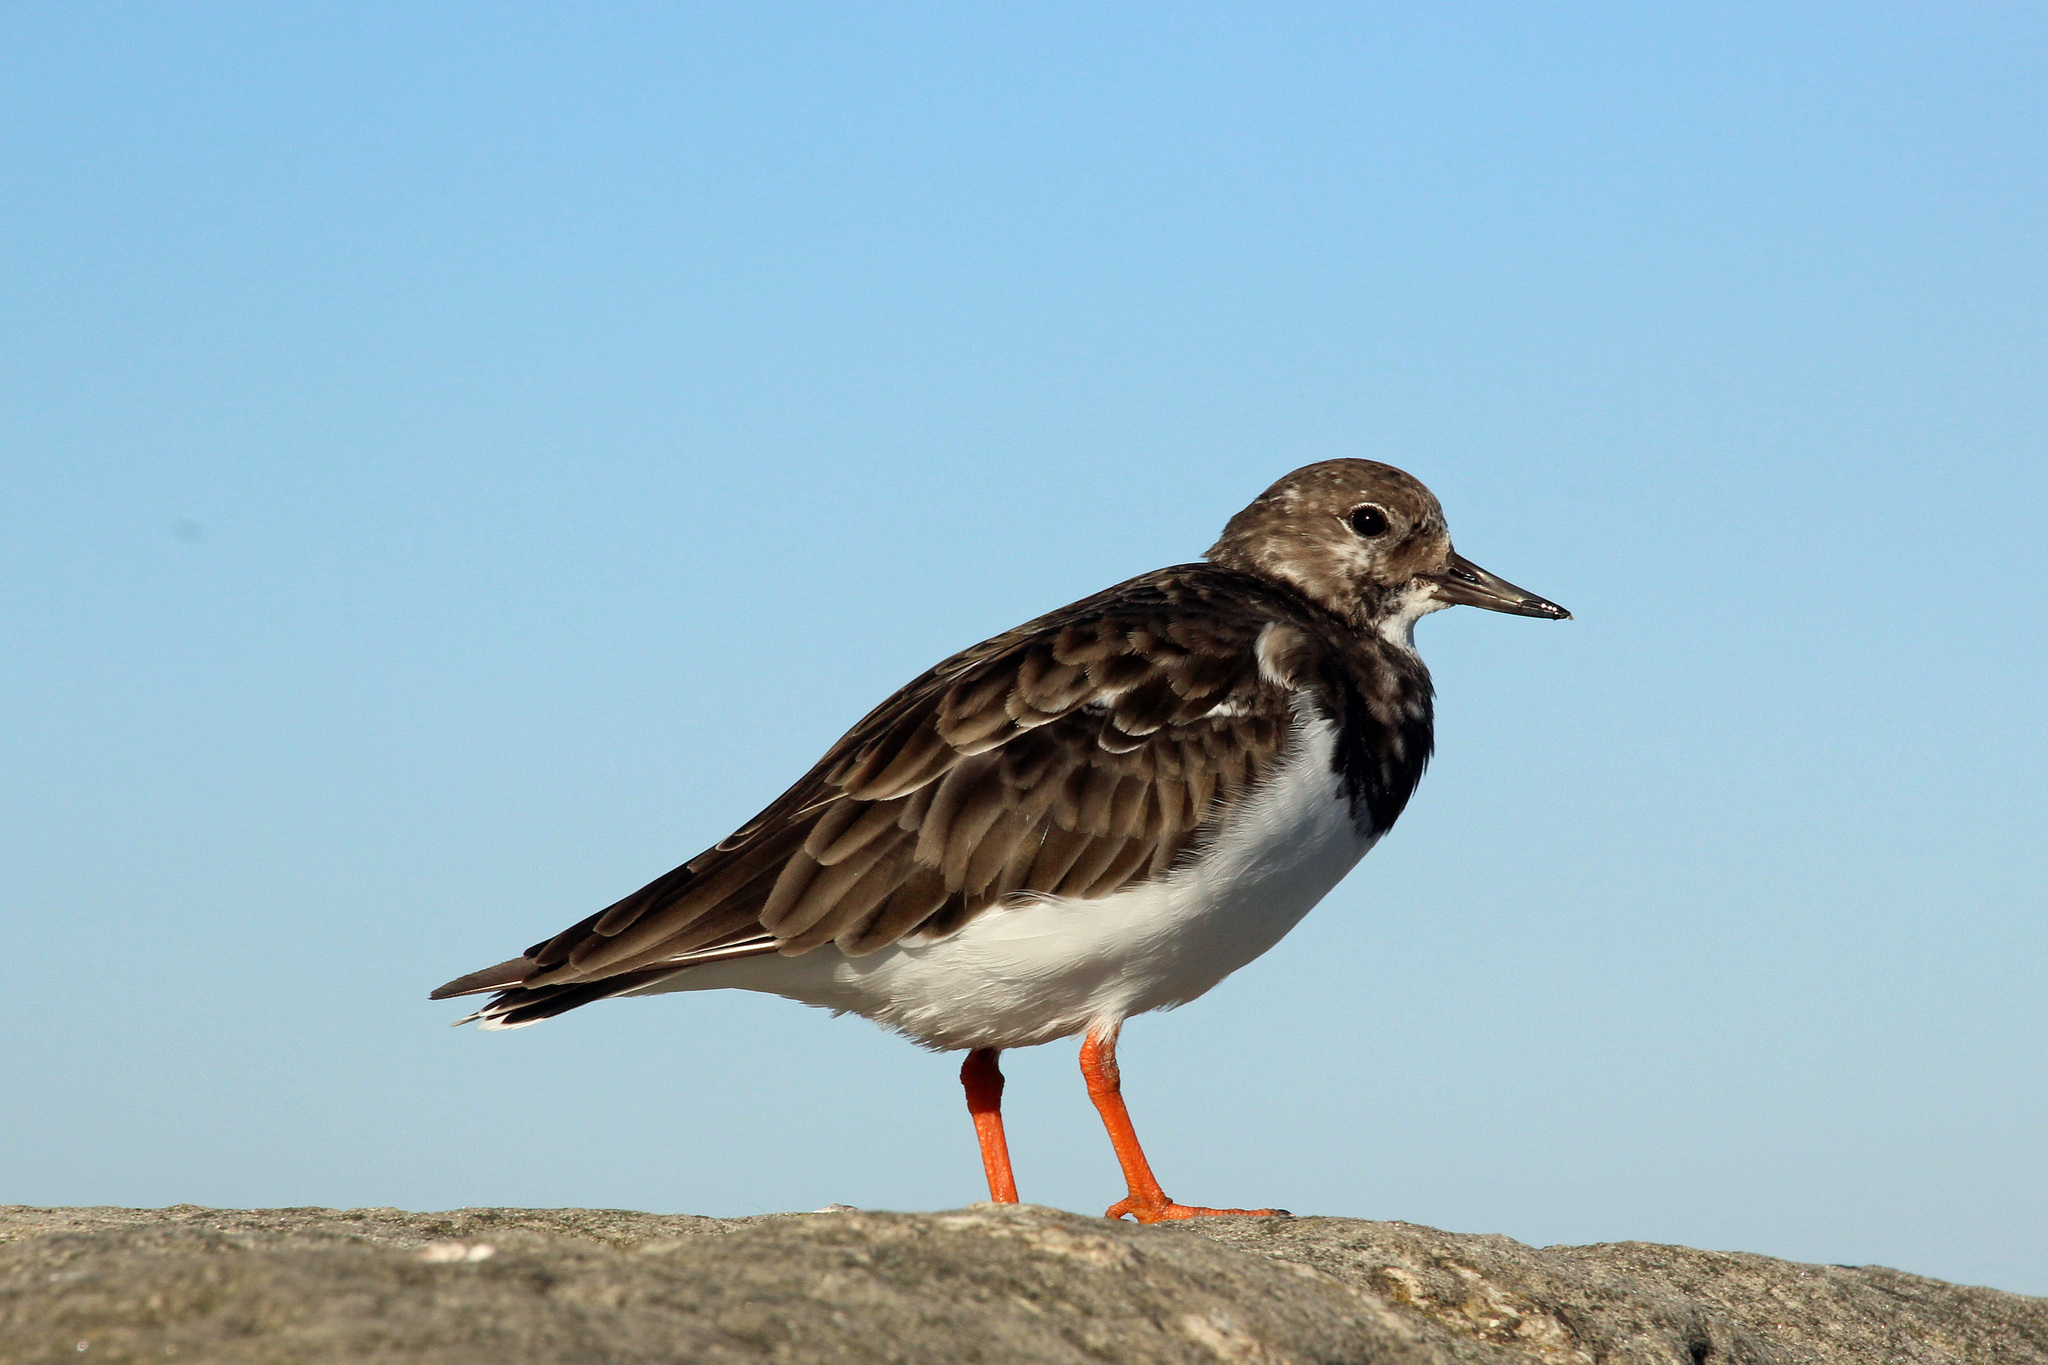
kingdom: Animalia
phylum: Chordata
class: Aves
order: Charadriiformes
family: Scolopacidae
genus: Arenaria
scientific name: Arenaria interpres
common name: Ruddy turnstone
